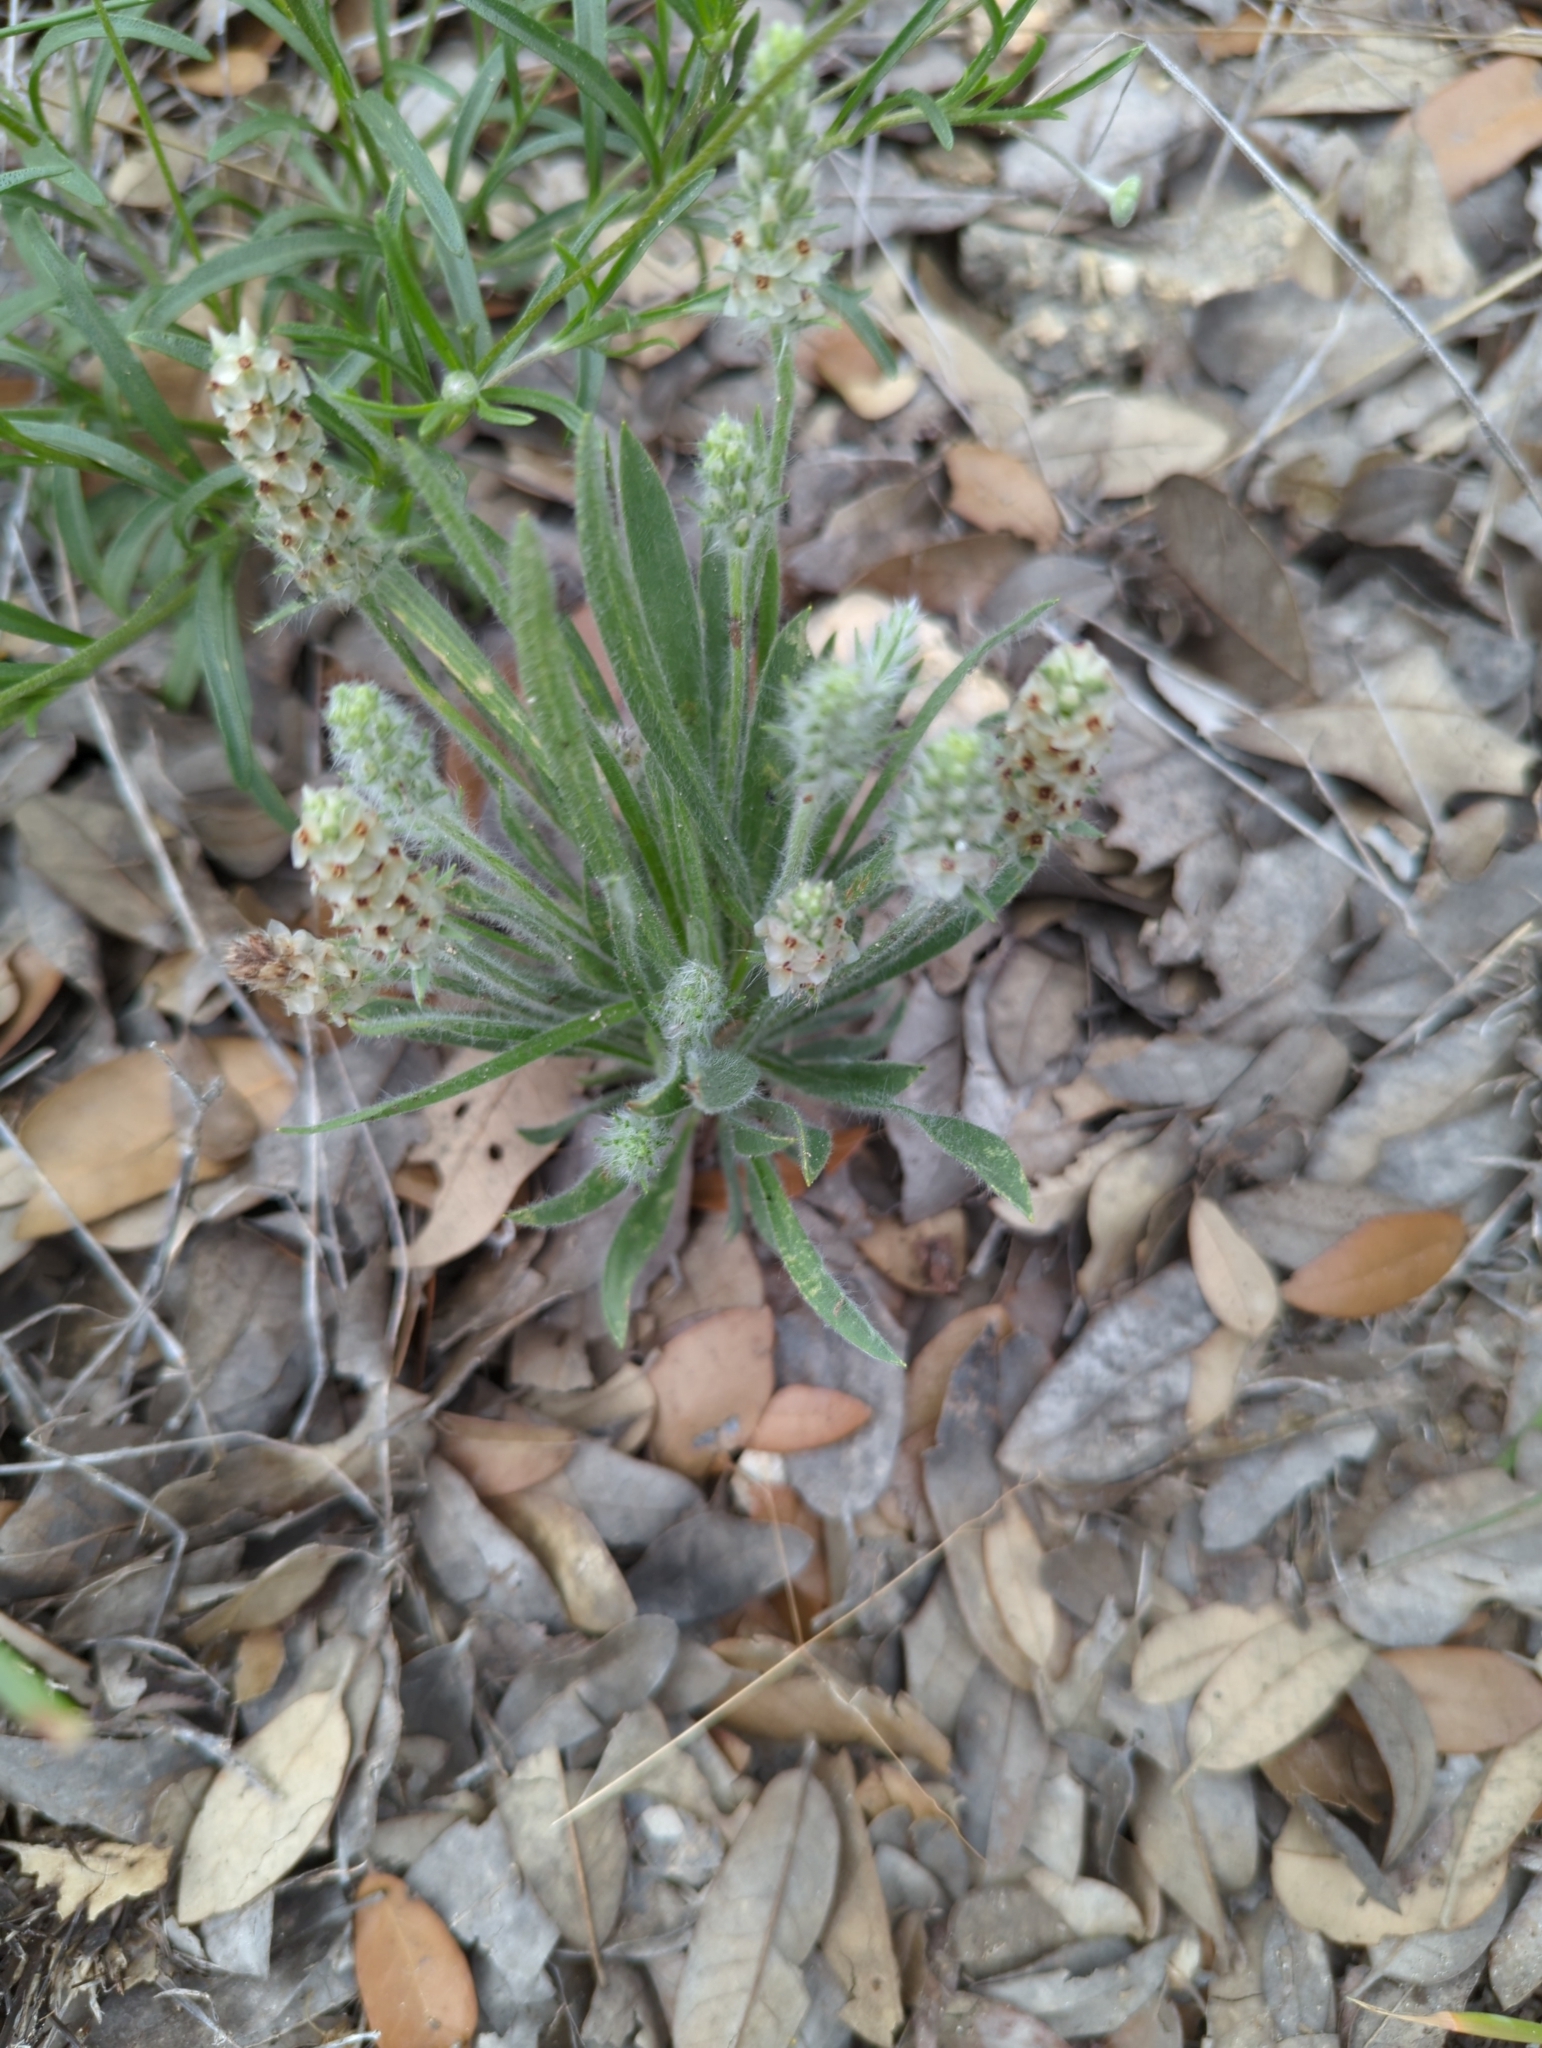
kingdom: Plantae
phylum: Tracheophyta
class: Magnoliopsida
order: Lamiales
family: Plantaginaceae
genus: Plantago
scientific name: Plantago helleri
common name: Heller's plantain
